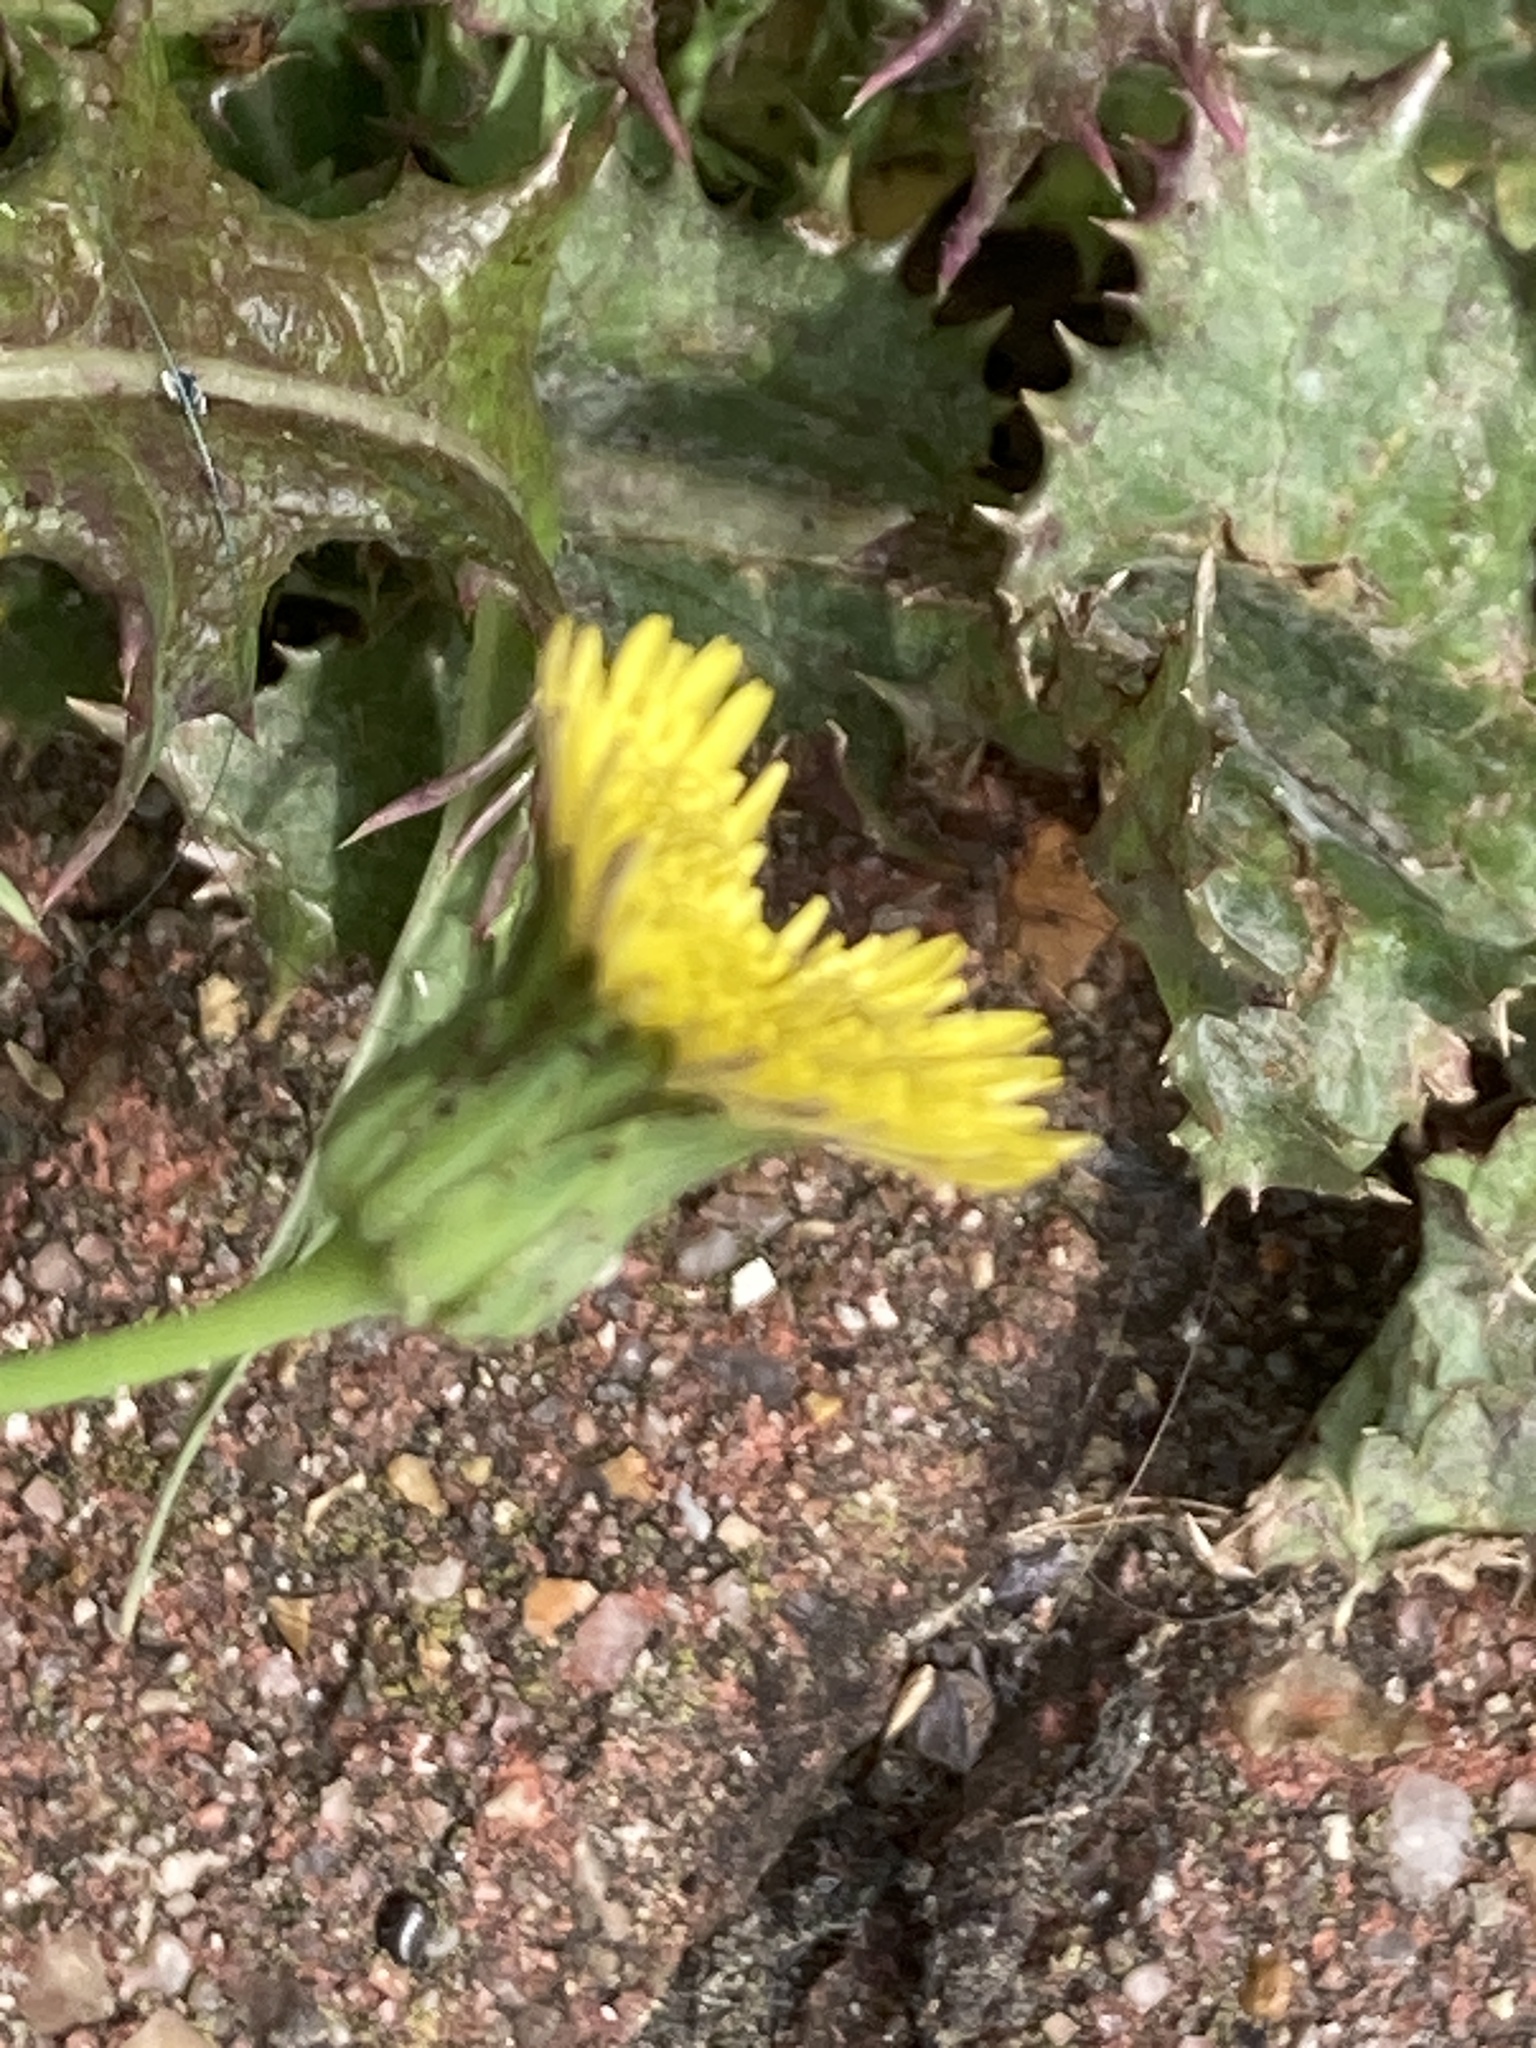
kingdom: Plantae
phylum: Tracheophyta
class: Magnoliopsida
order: Asterales
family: Asteraceae
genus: Sonchus
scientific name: Sonchus asper
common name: Prickly sow-thistle
